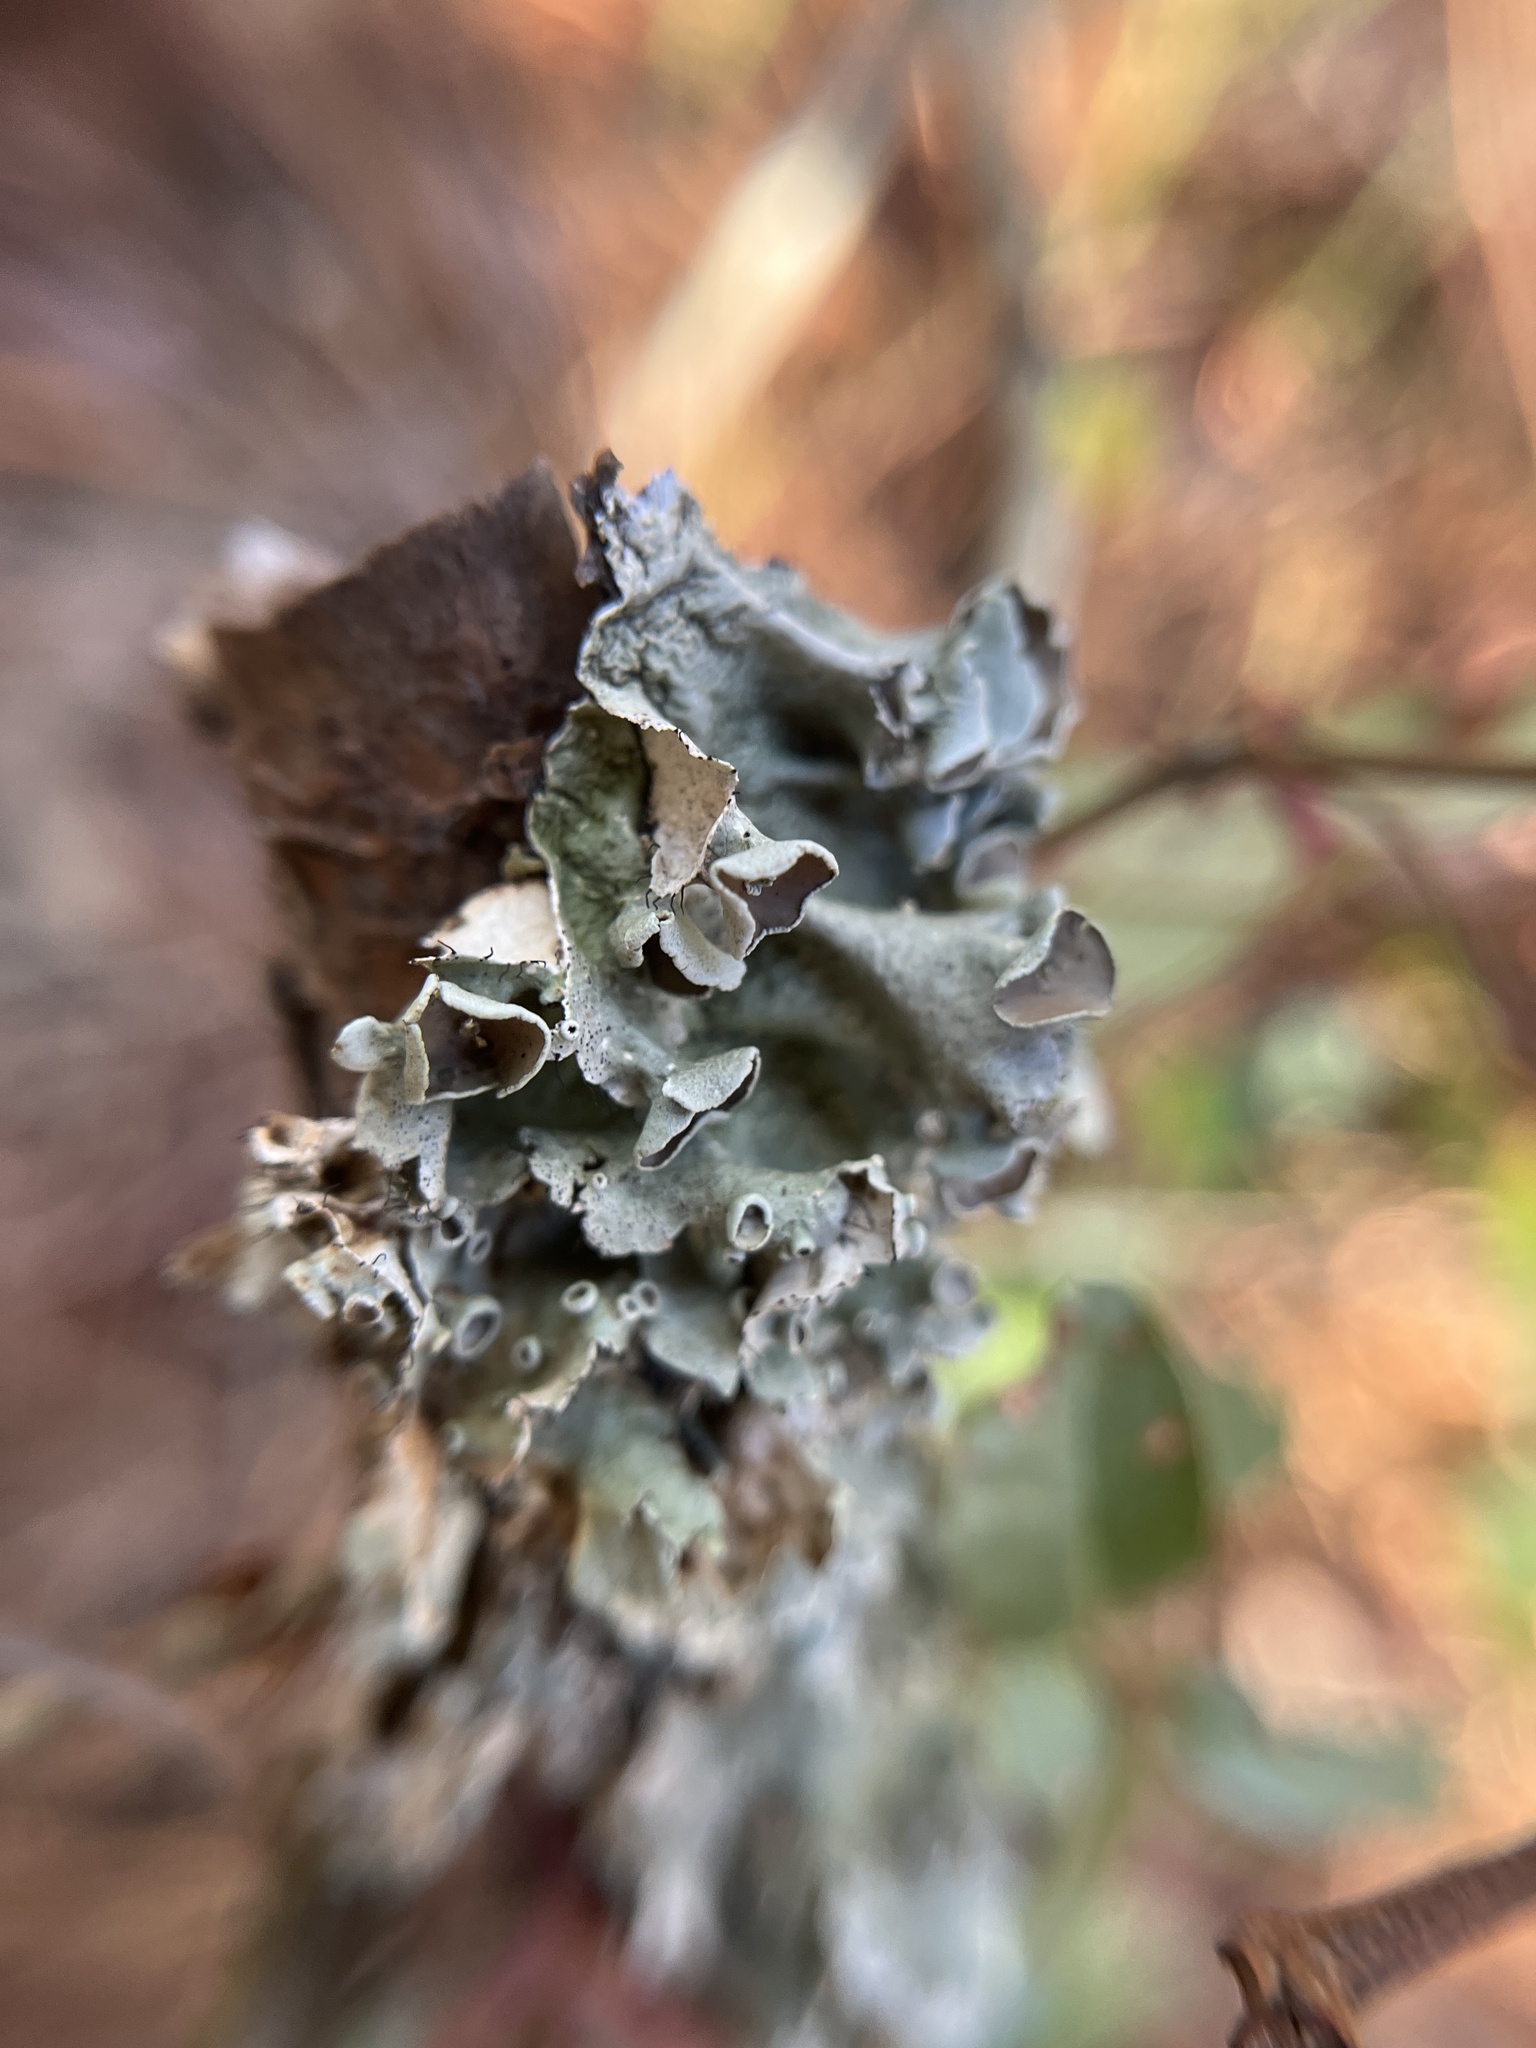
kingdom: Fungi
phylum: Ascomycota
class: Lecanoromycetes
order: Lecanorales
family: Parmeliaceae
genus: Parmotrema
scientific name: Parmotrema subrigidum
